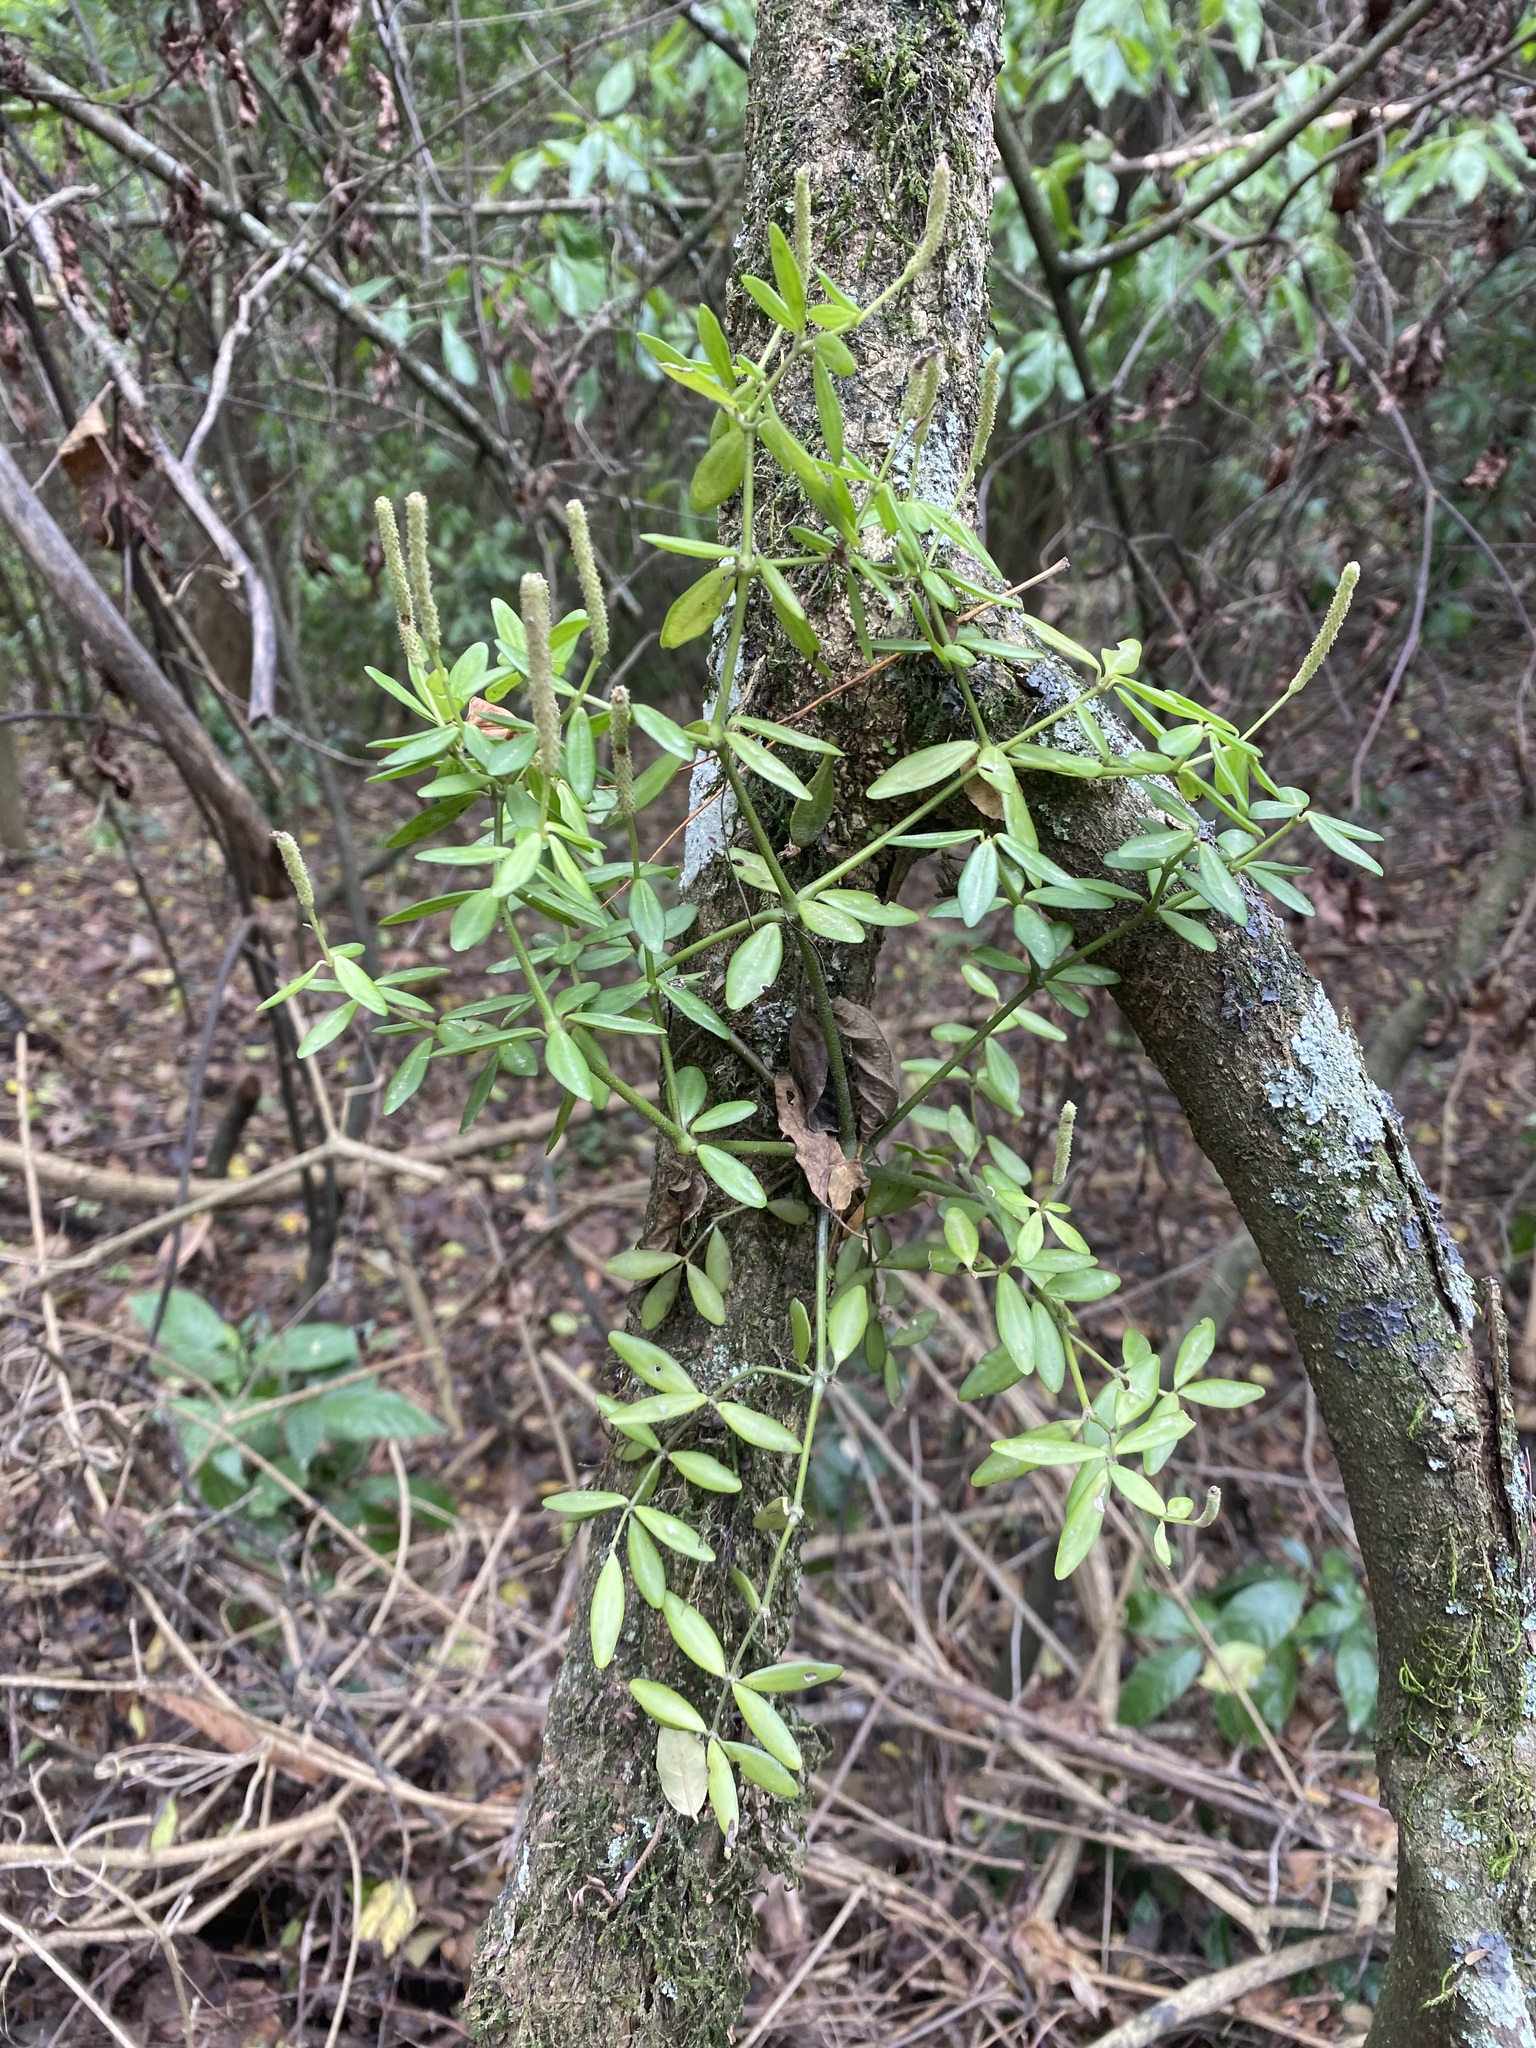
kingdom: Plantae
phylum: Tracheophyta
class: Magnoliopsida
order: Piperales
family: Piperaceae
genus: Peperomia
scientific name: Peperomia tetraphylla
